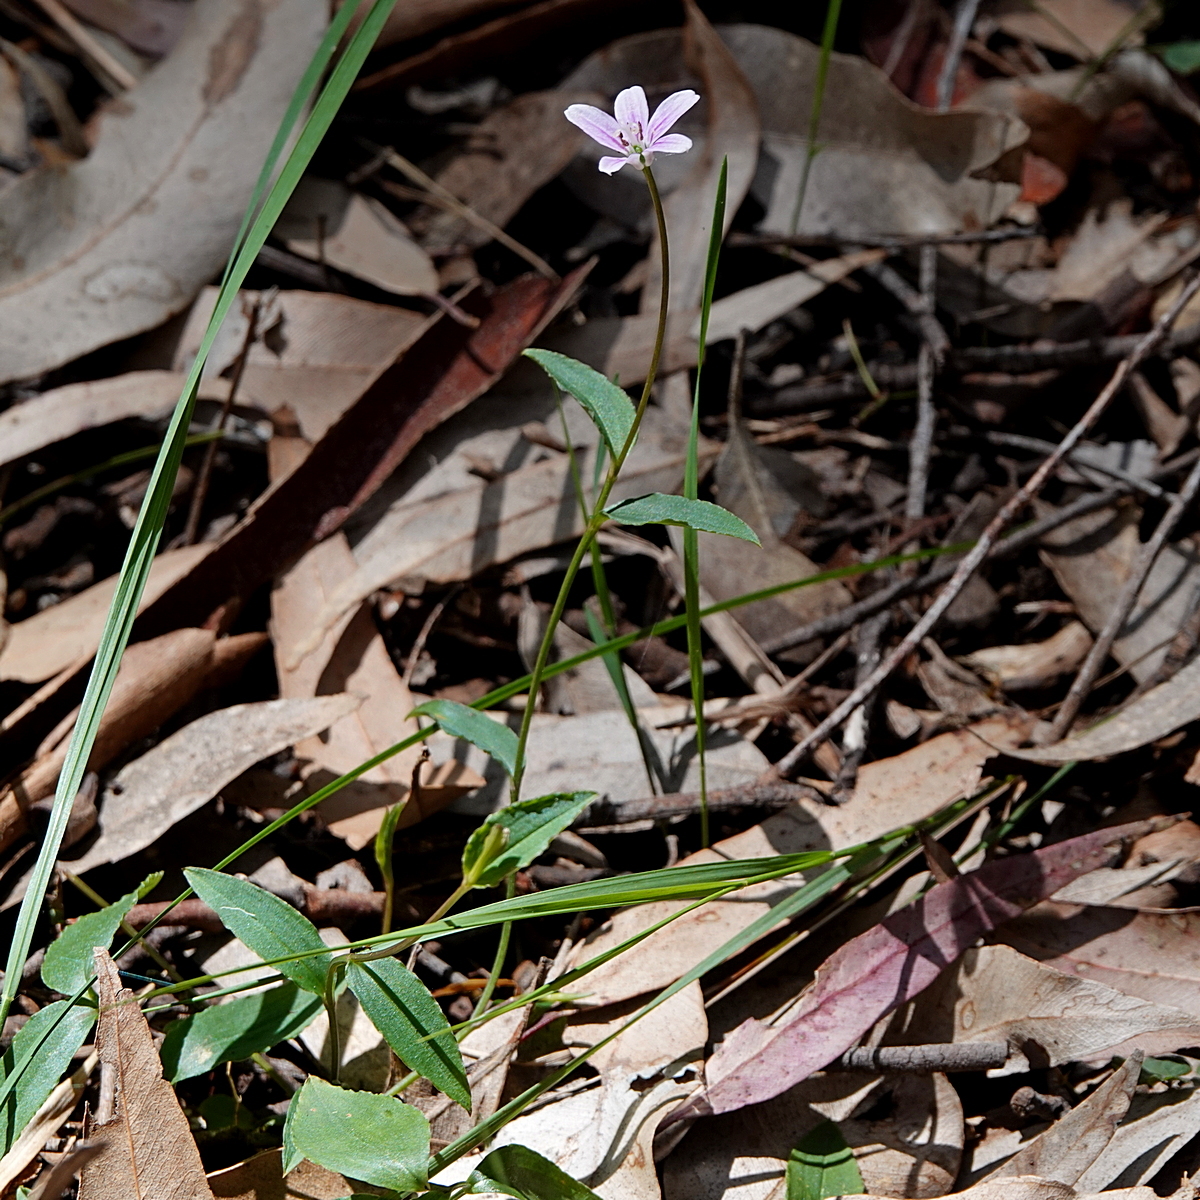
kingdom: Plantae
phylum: Tracheophyta
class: Liliopsida
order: Liliales
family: Colchicaceae
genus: Schelhammera
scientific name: Schelhammera undulata
